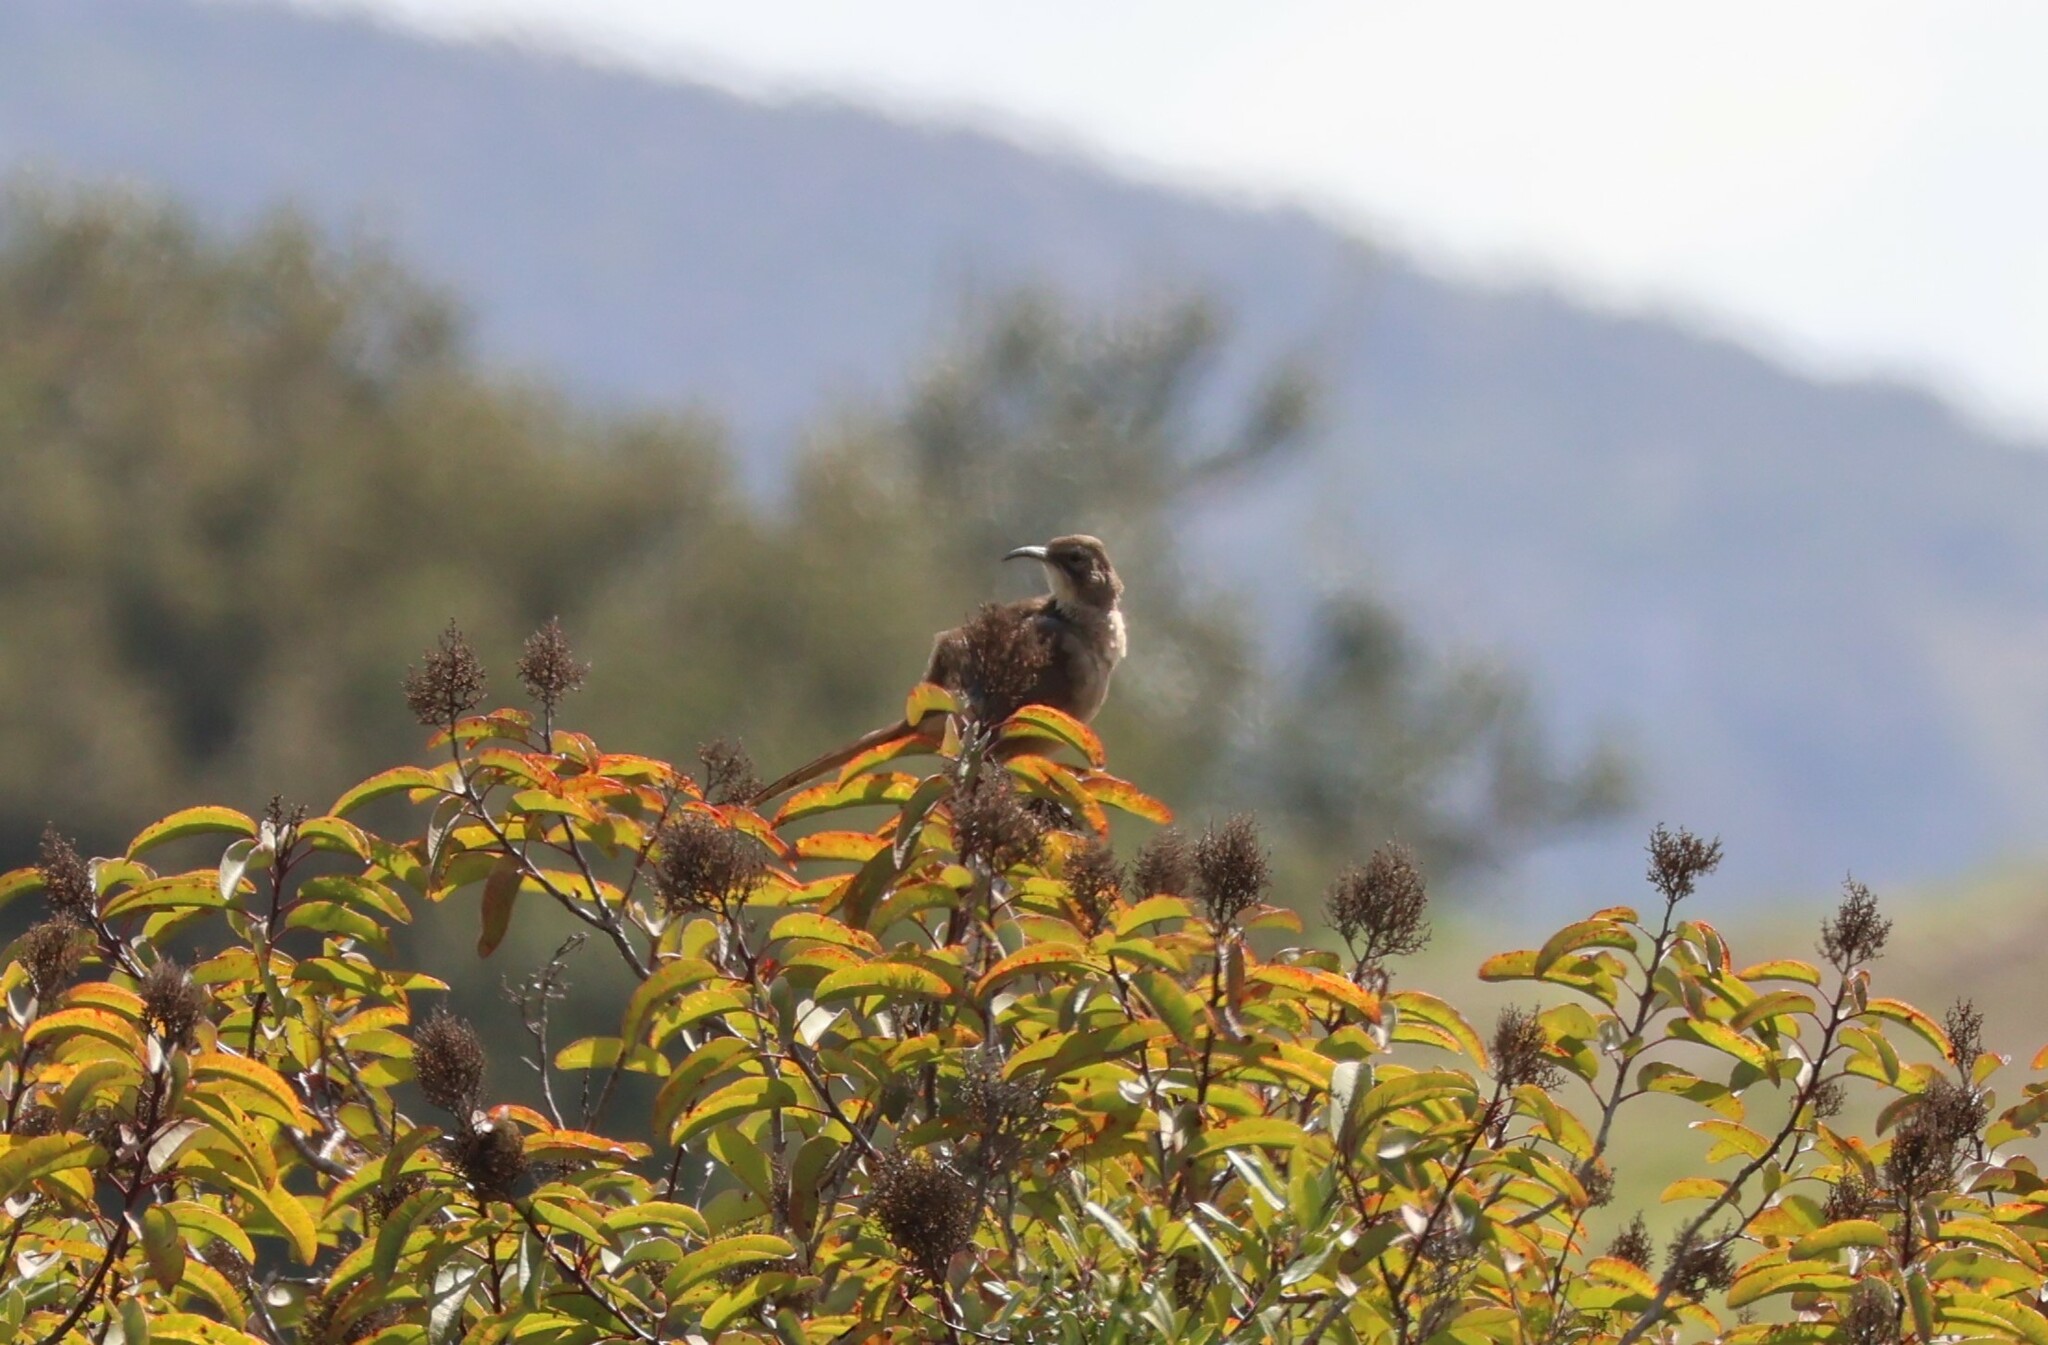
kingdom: Animalia
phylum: Chordata
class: Aves
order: Passeriformes
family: Mimidae
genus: Toxostoma
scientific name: Toxostoma redivivum
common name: California thrasher
